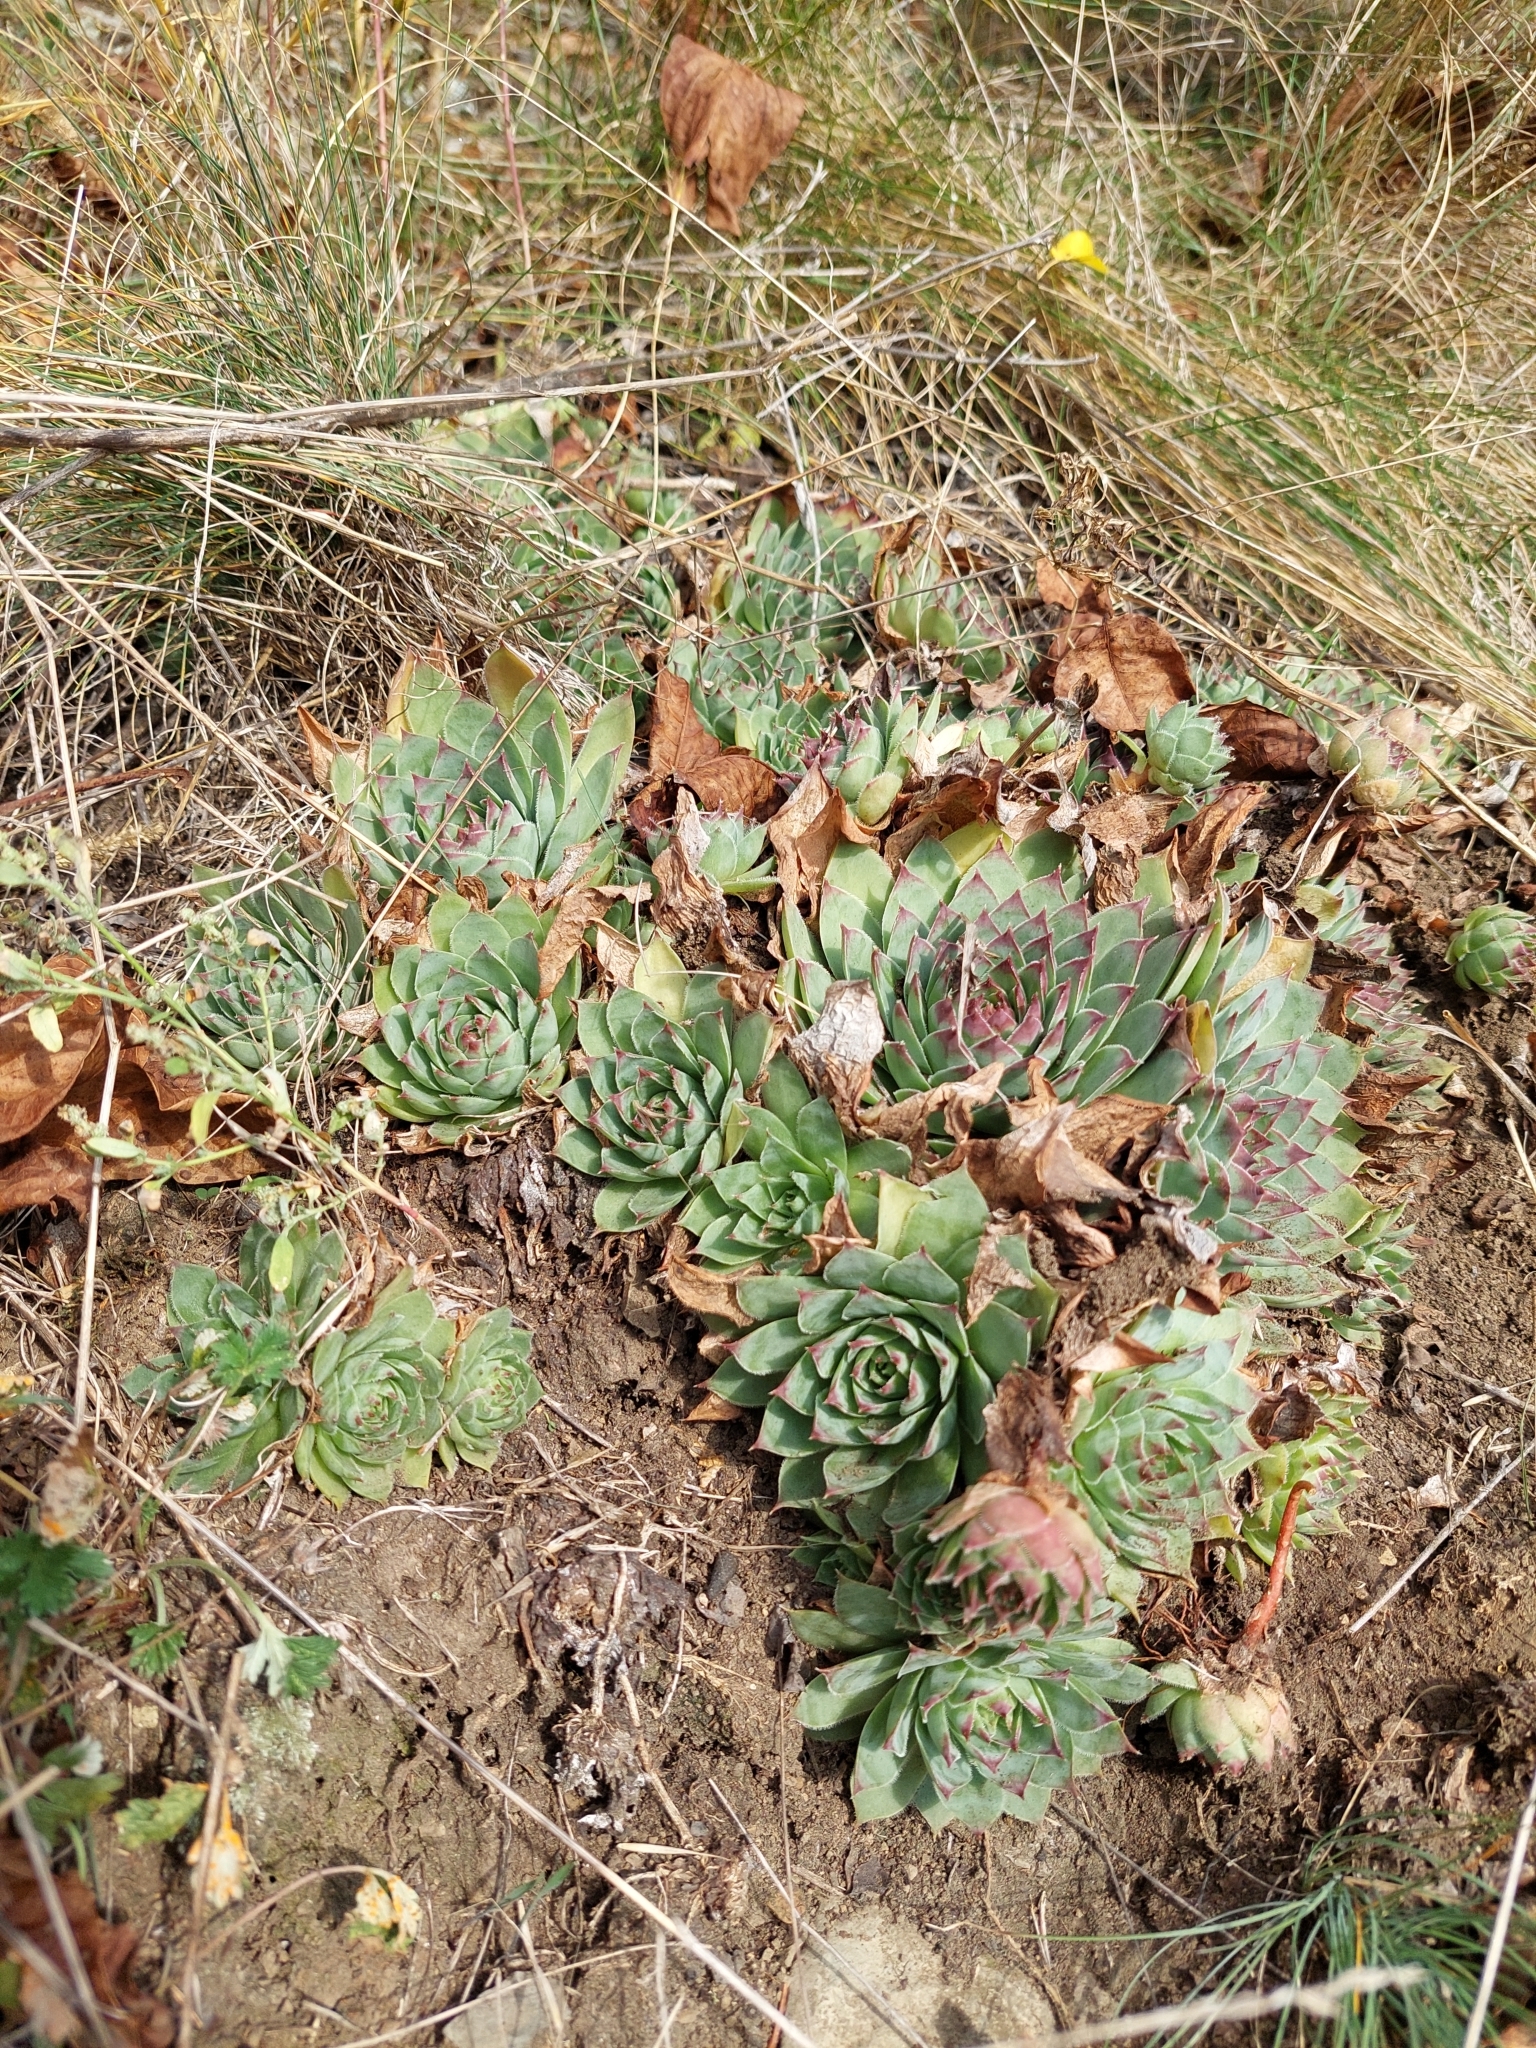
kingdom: Plantae
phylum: Tracheophyta
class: Magnoliopsida
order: Saxifragales
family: Crassulaceae
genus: Sempervivum
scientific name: Sempervivum tectorum
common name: House-leek
